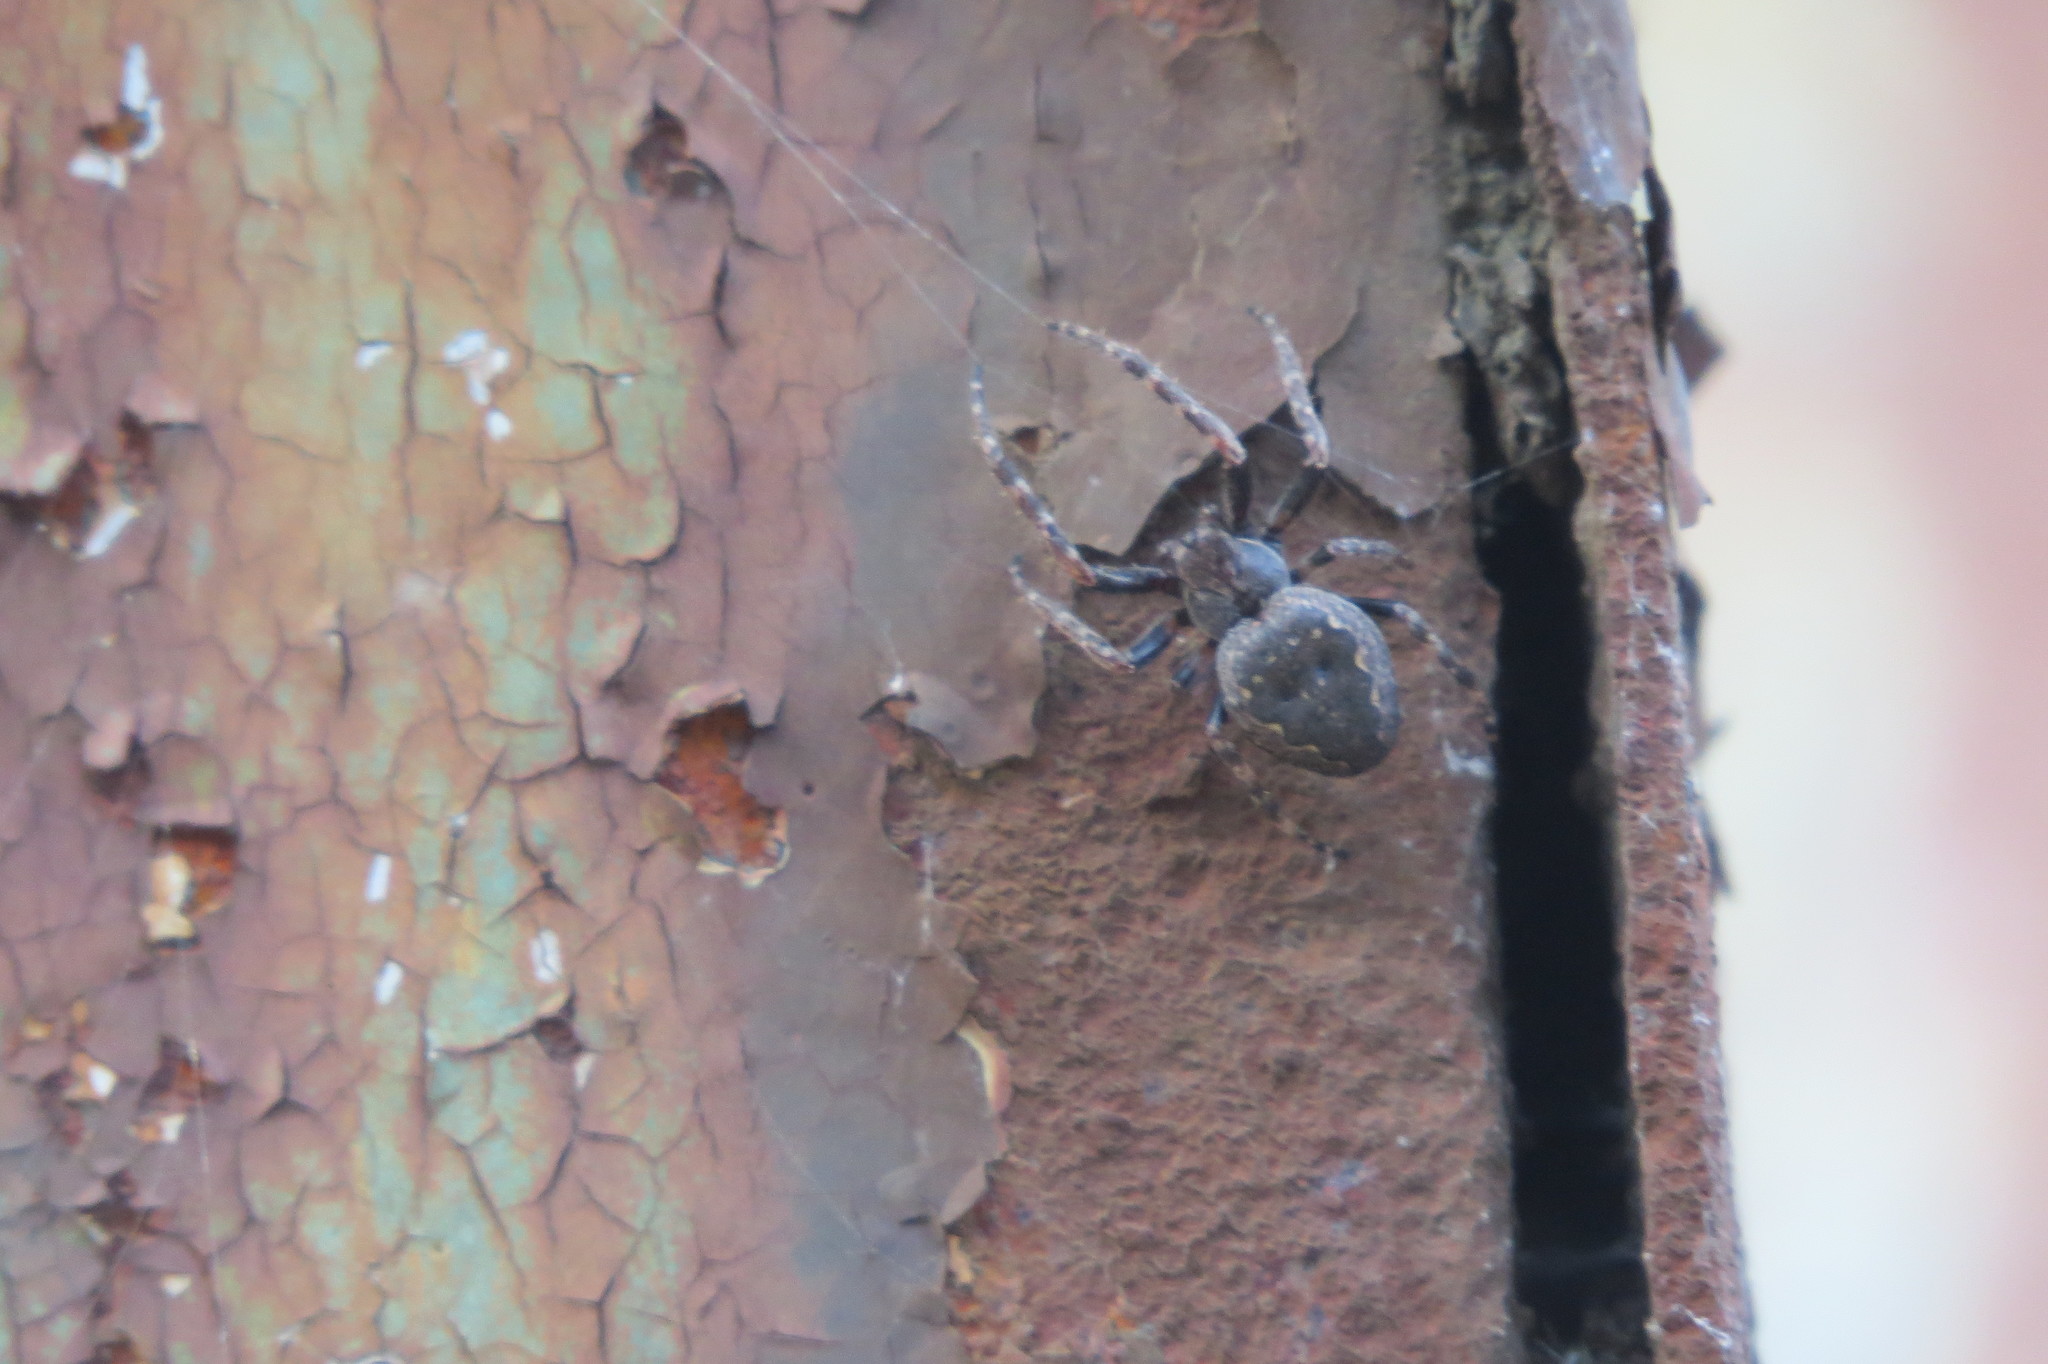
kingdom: Animalia
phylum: Arthropoda
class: Arachnida
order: Araneae
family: Araneidae
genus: Nuctenea
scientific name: Nuctenea umbratica
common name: Toad spider
